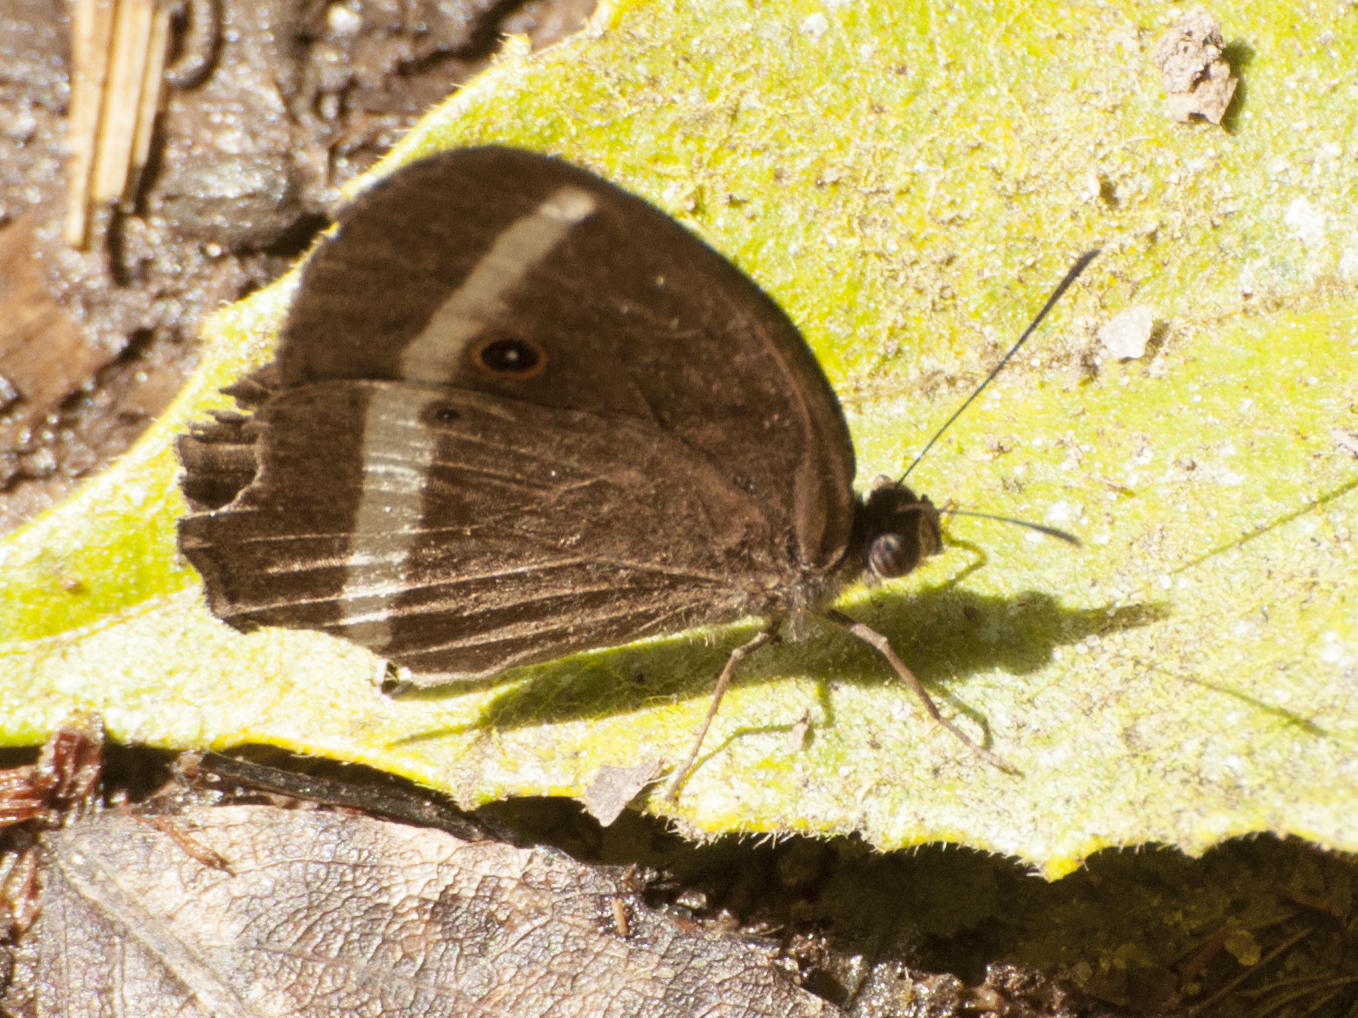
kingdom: Animalia
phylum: Arthropoda
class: Insecta
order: Lepidoptera
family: Nymphalidae
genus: Heteropsis
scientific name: Heteropsis vola
